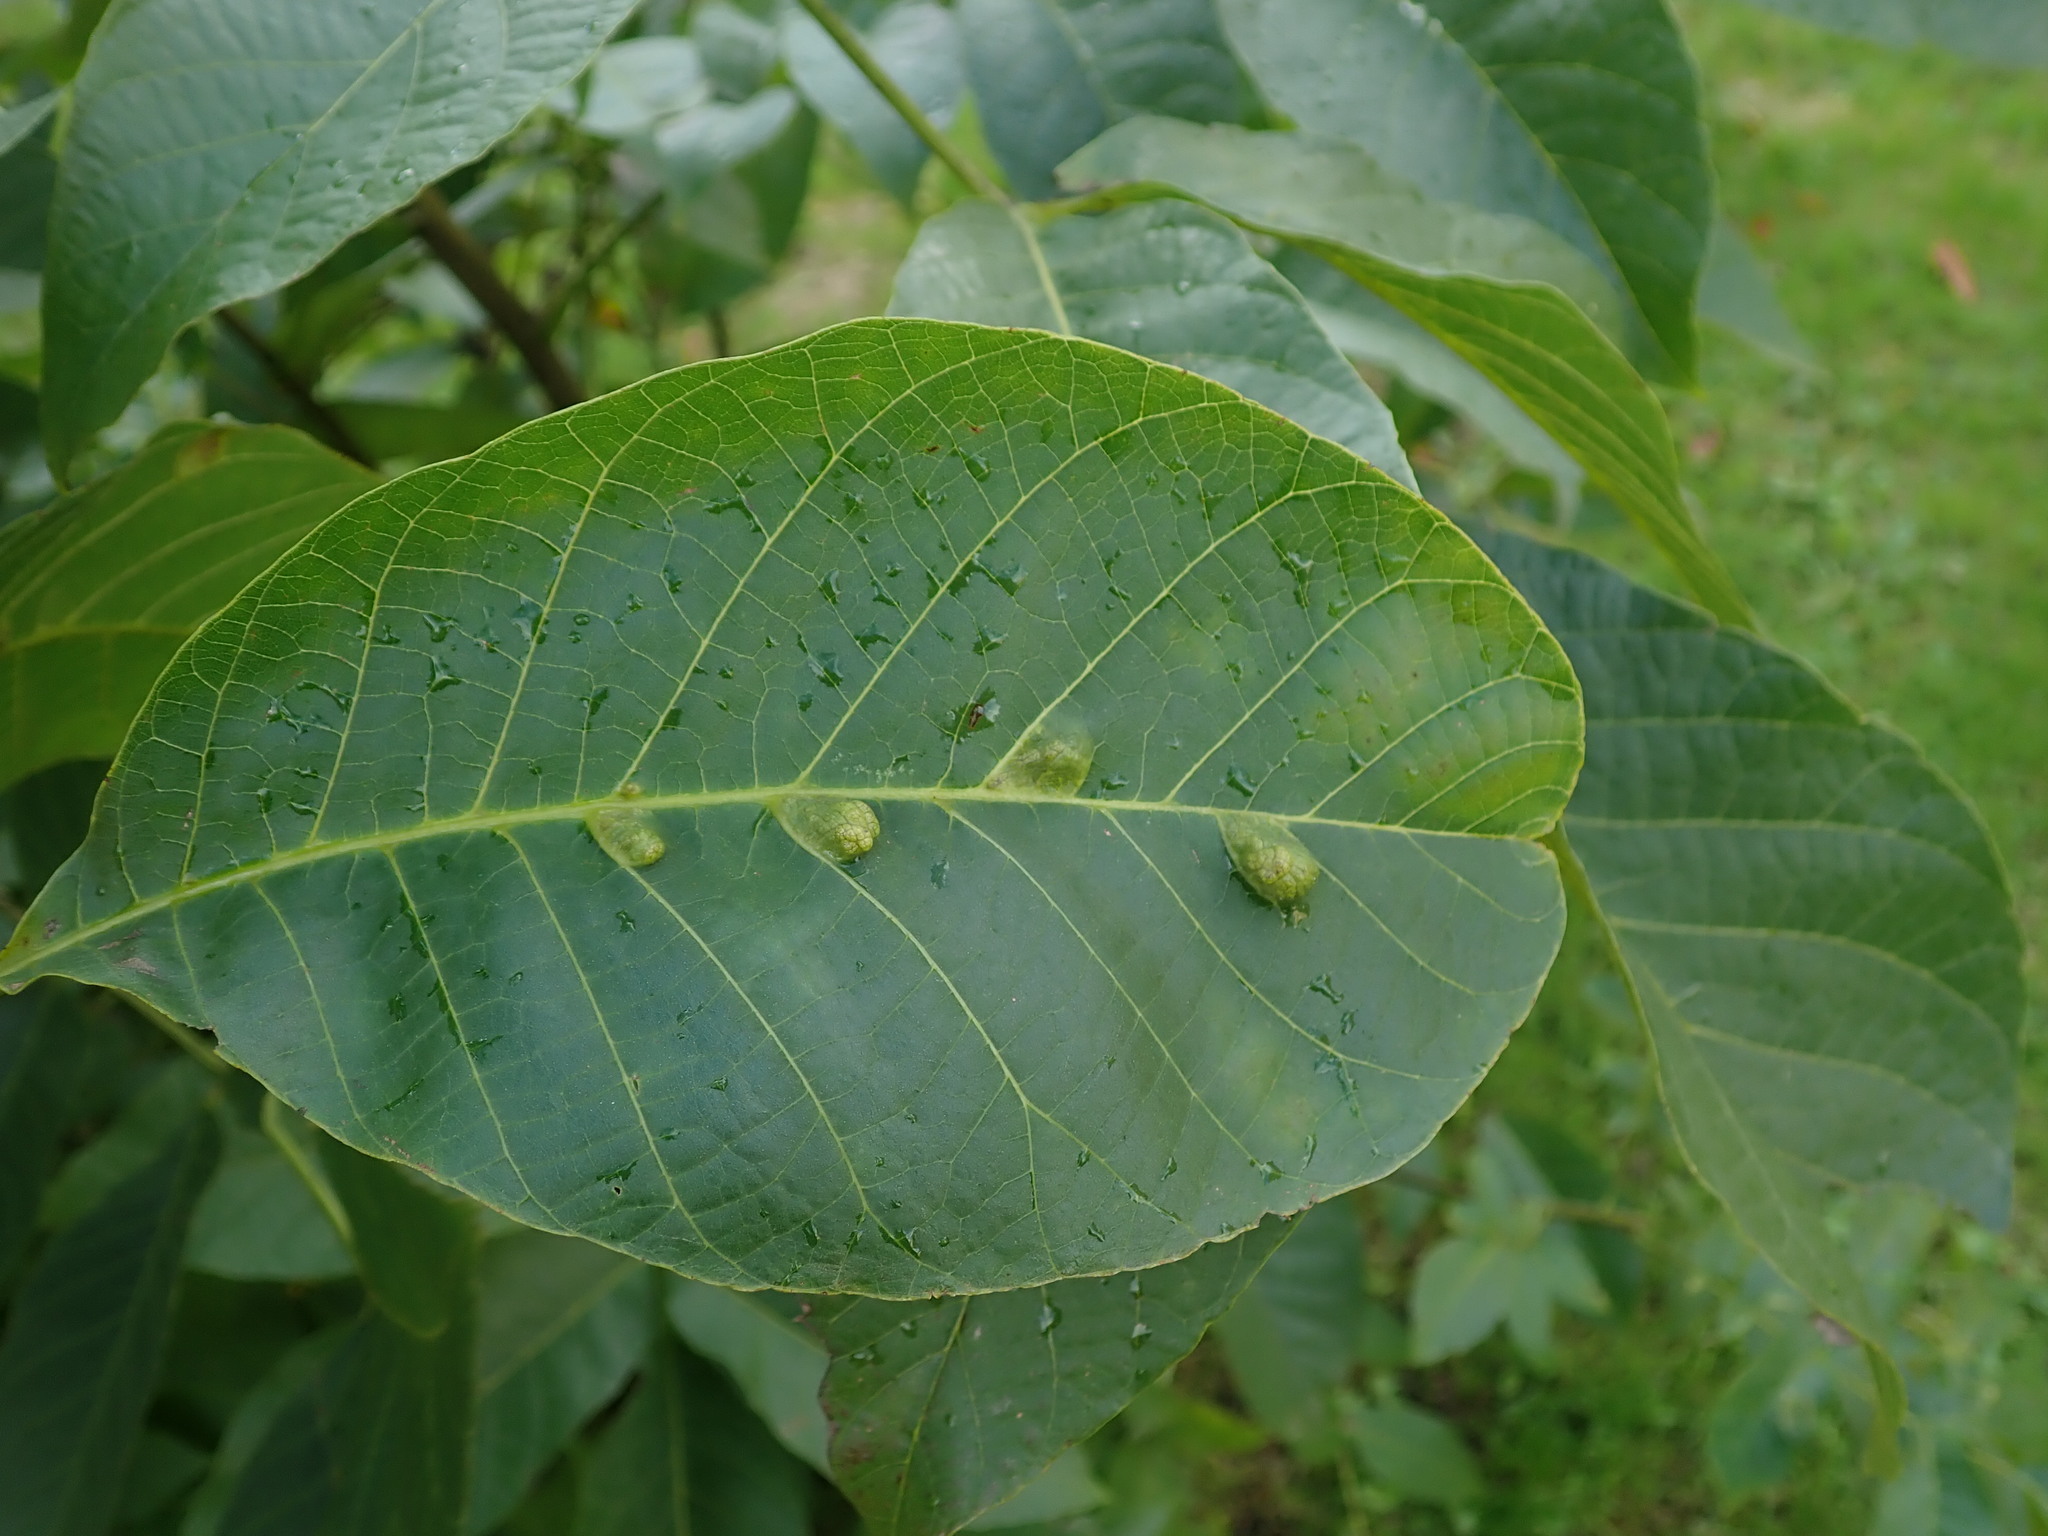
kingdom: Animalia
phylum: Arthropoda
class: Arachnida
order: Trombidiformes
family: Eriophyidae
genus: Aceria
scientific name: Aceria erinea
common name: Persian walnut erineum mite
